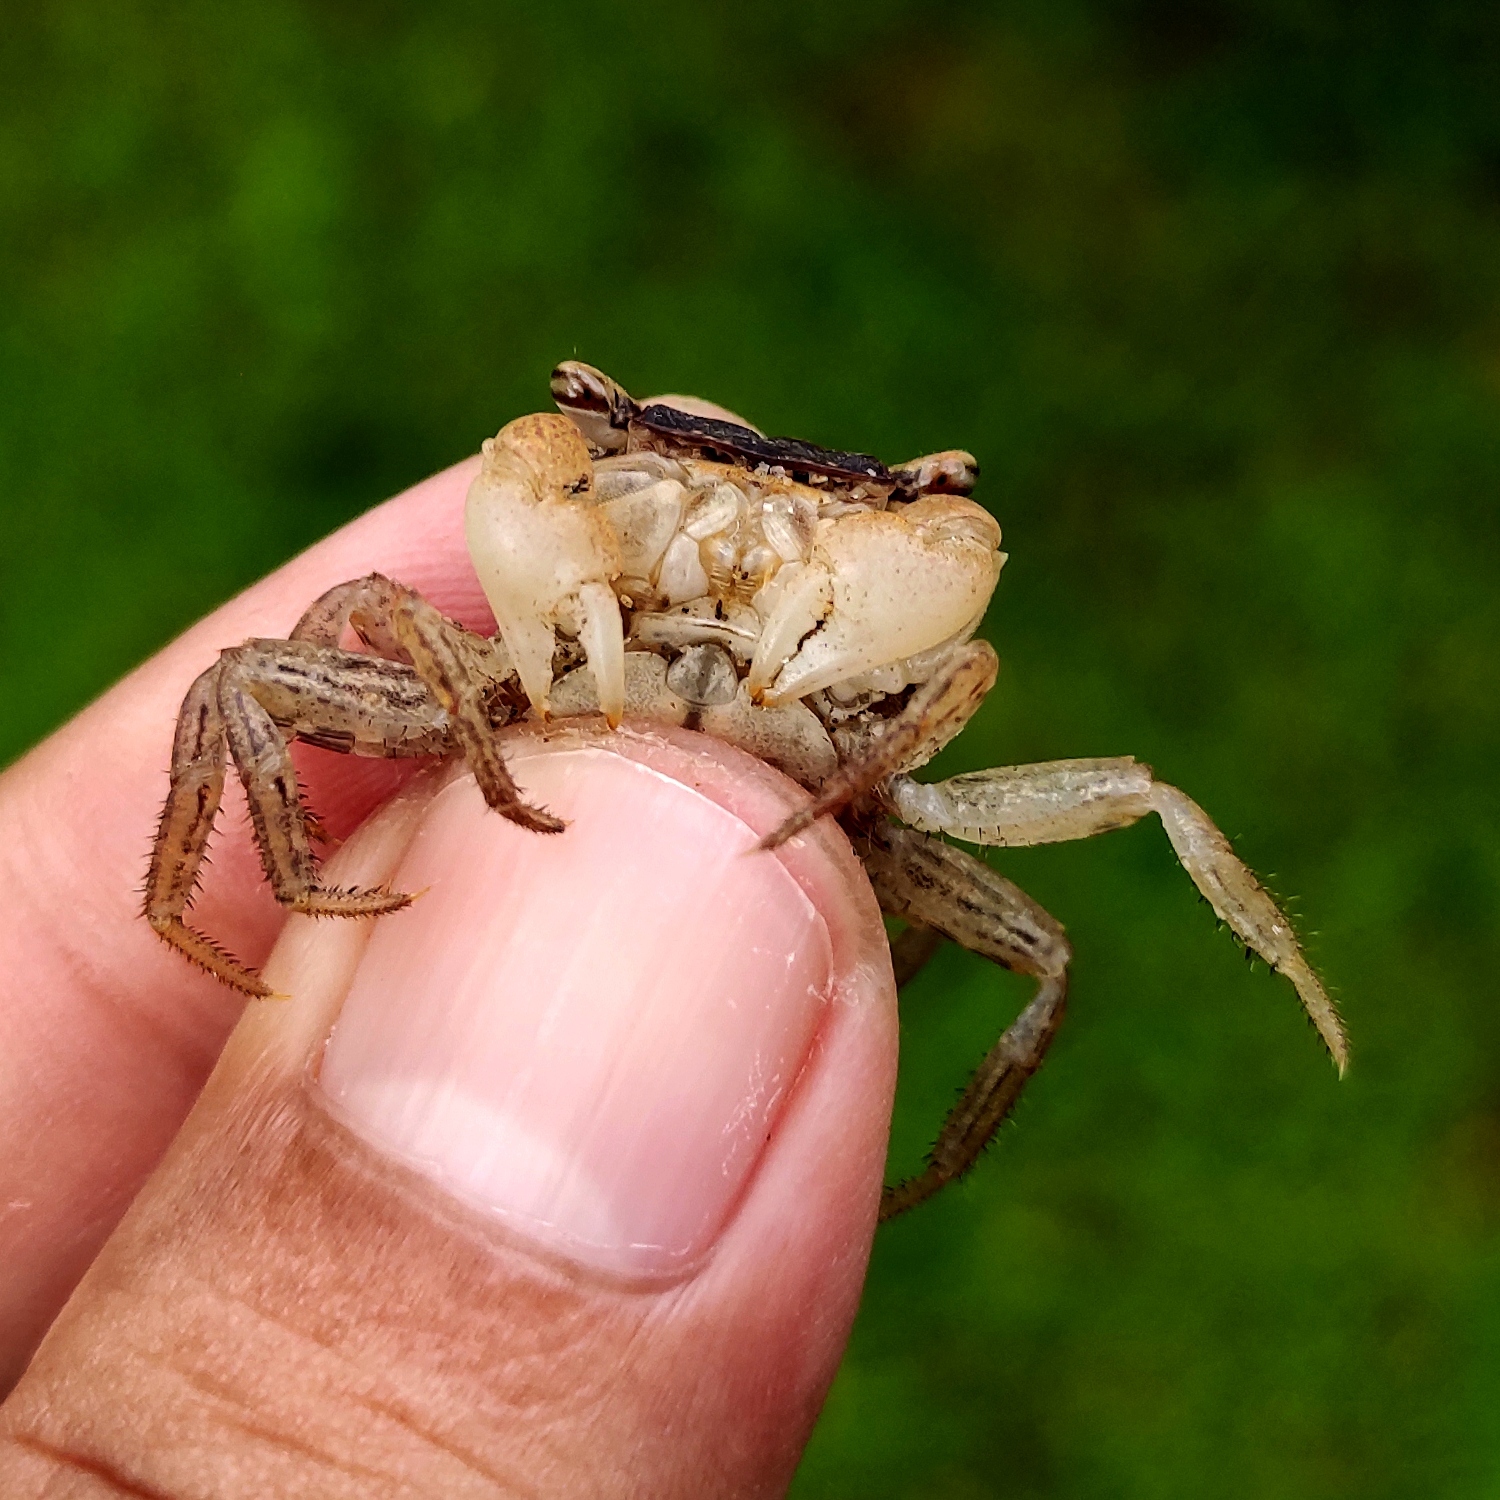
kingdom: Animalia
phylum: Arthropoda
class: Malacostraca
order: Decapoda
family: Sesarmidae
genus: Metasesarma
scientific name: Metasesarma obesum
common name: Marble crab
